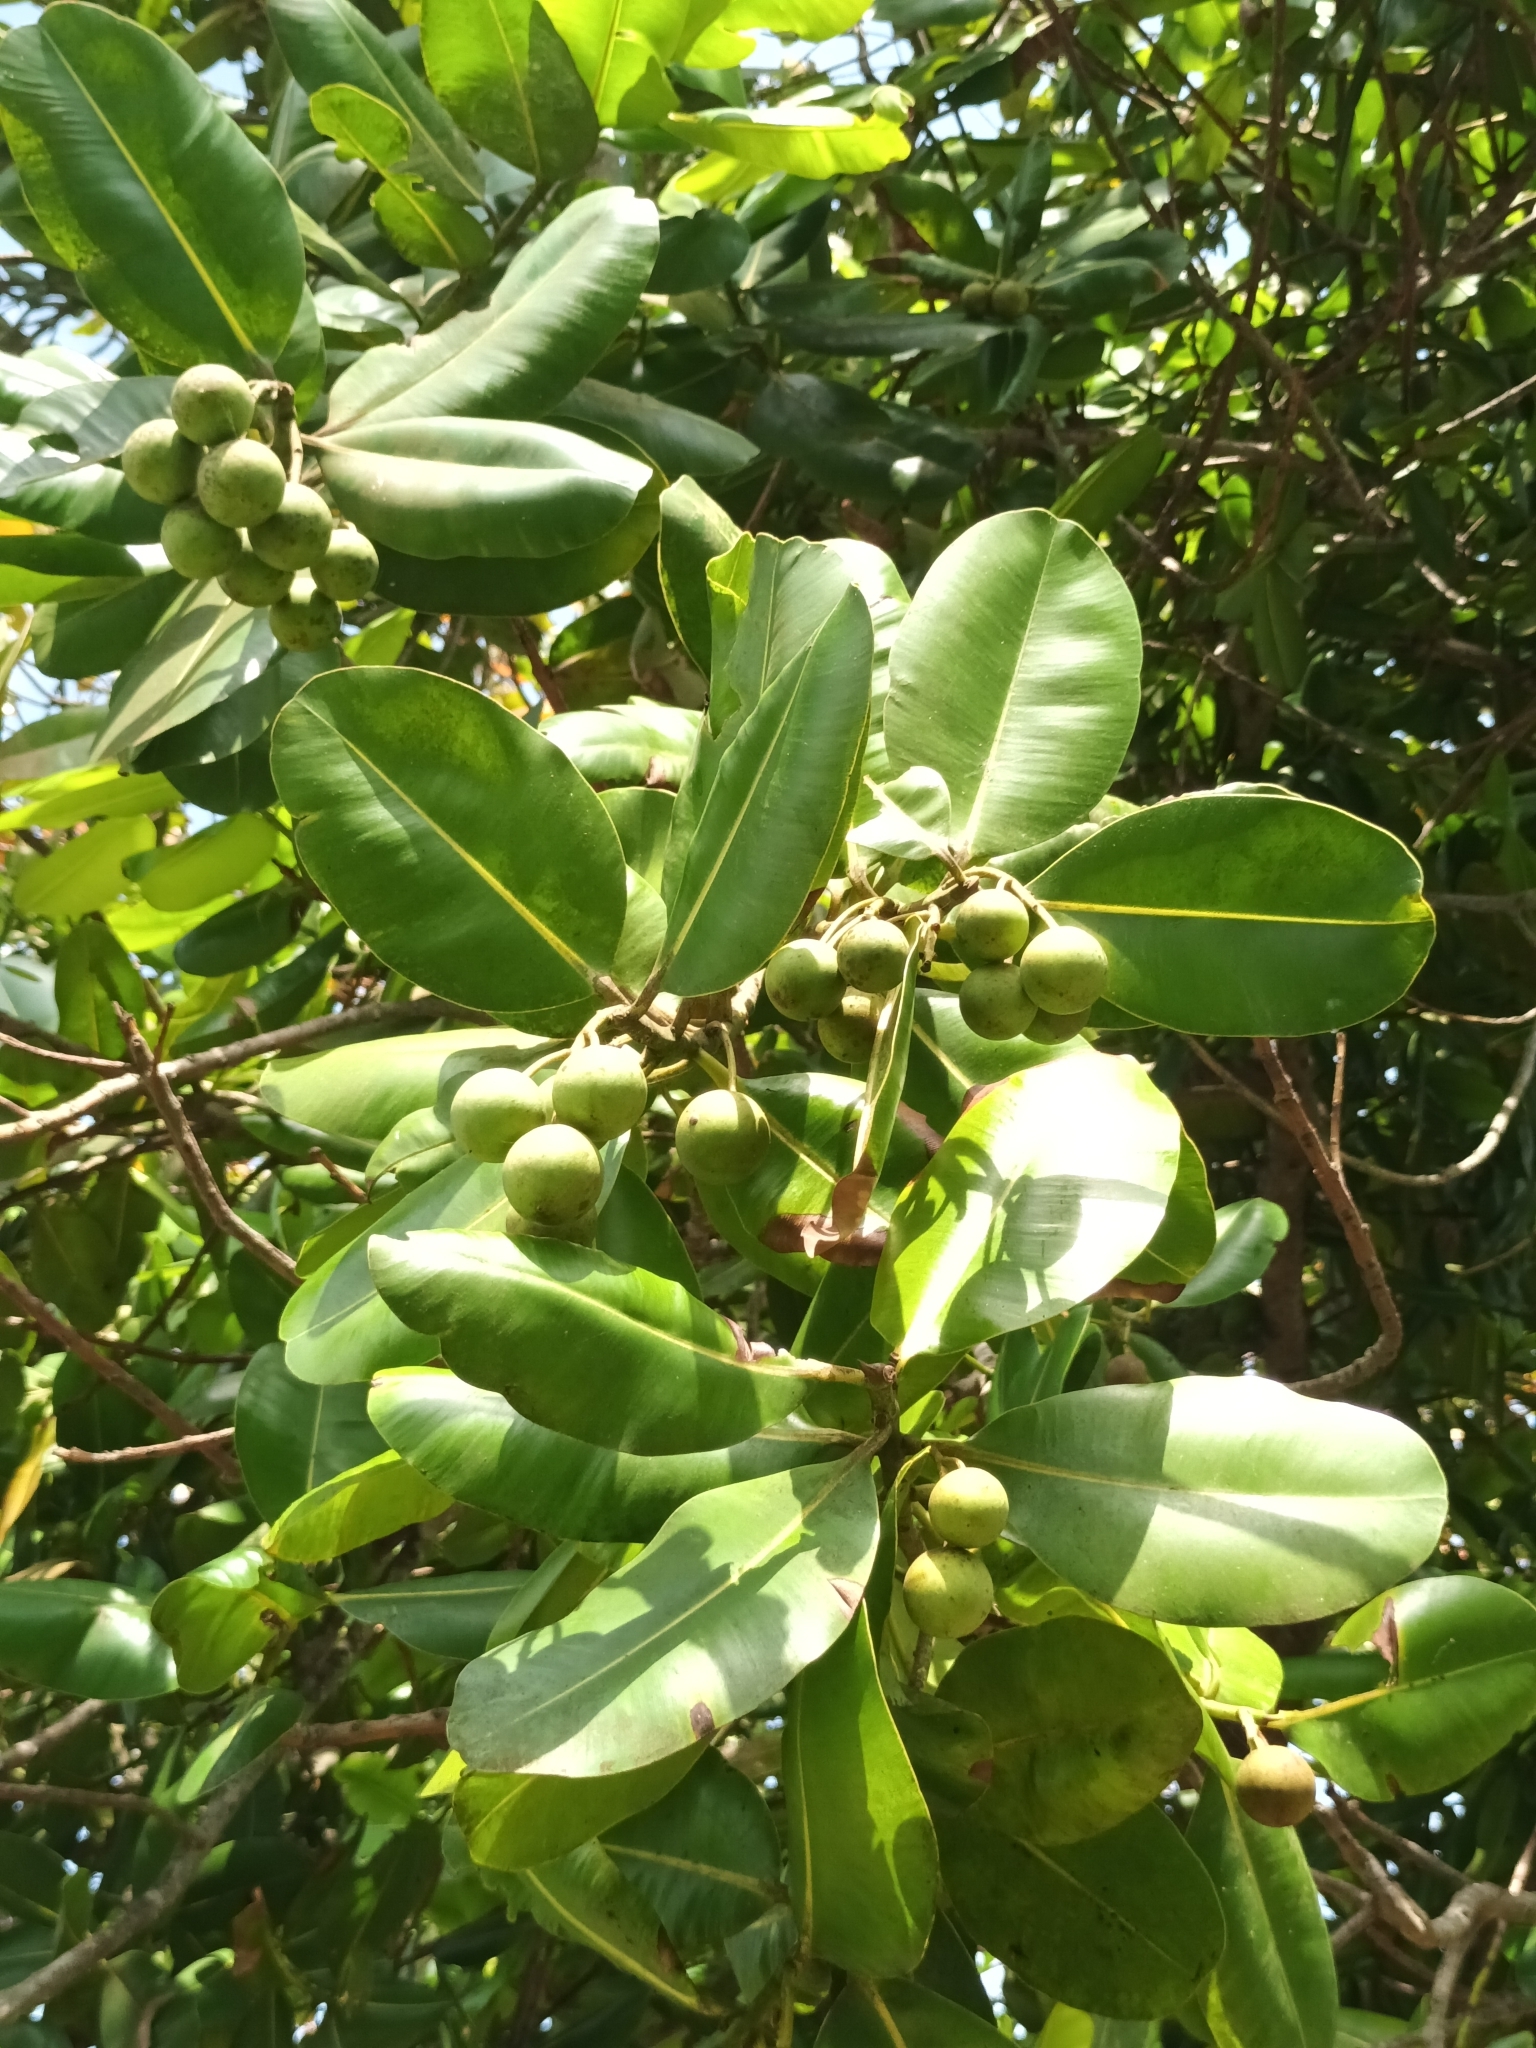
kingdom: Plantae
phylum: Tracheophyta
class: Magnoliopsida
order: Malpighiales
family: Calophyllaceae
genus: Calophyllum
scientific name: Calophyllum inophyllum
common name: Alexandrian laurel
